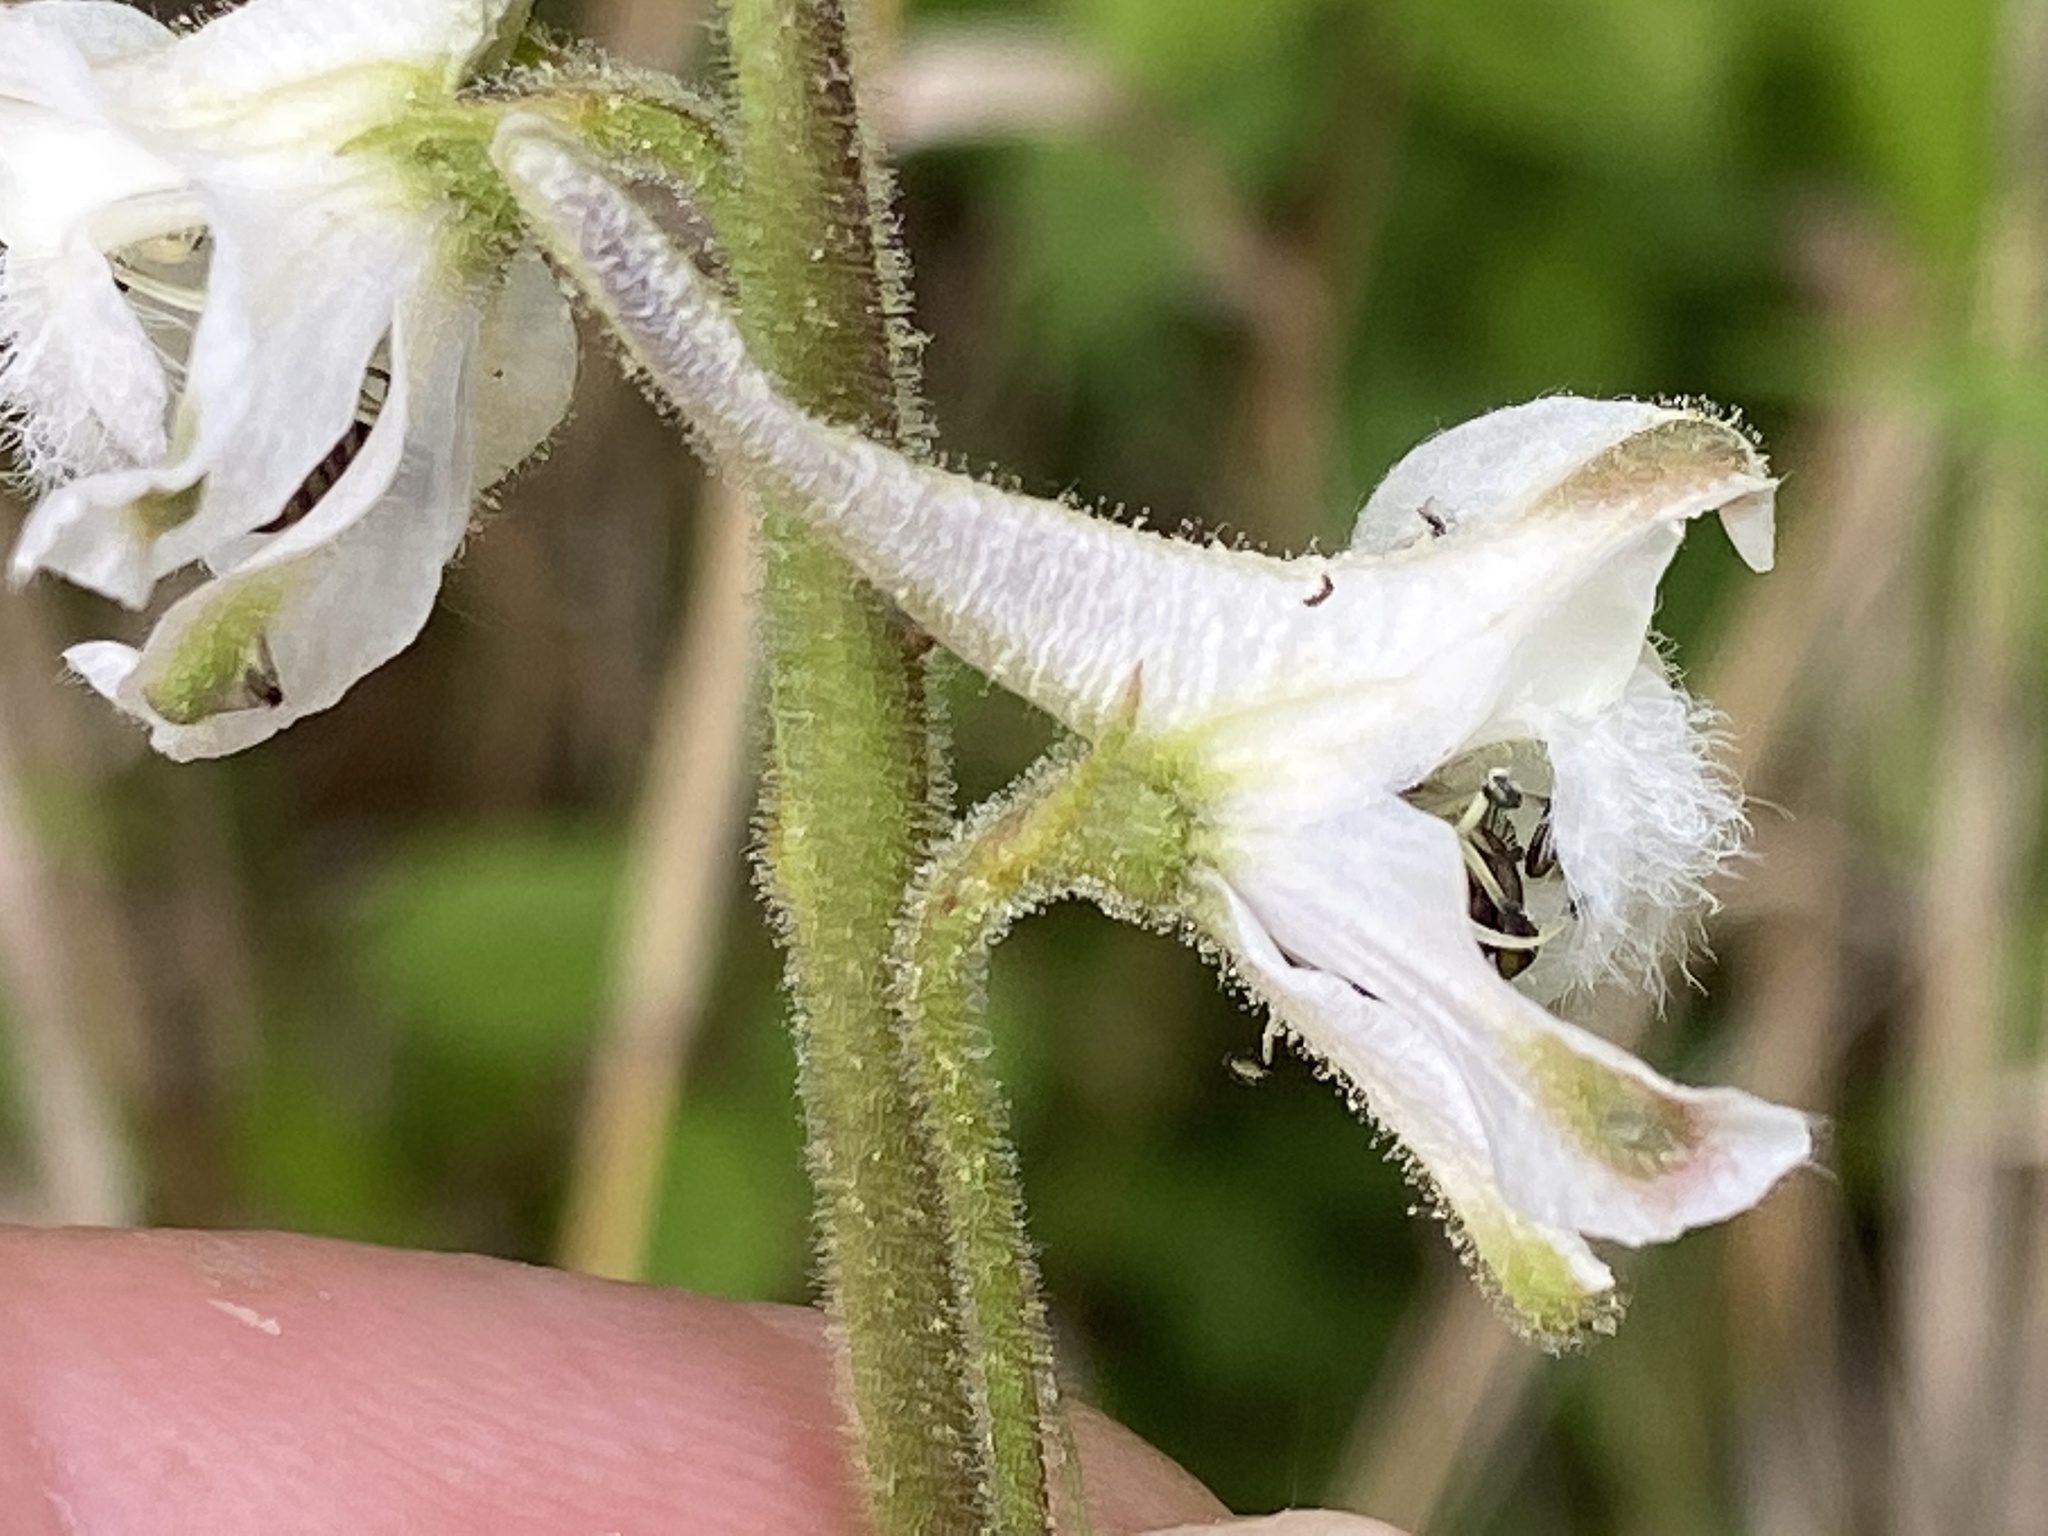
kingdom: Plantae
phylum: Tracheophyta
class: Magnoliopsida
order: Ranunculales
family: Ranunculaceae
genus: Delphinium
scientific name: Delphinium carolinianum
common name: Carolina larkspur
